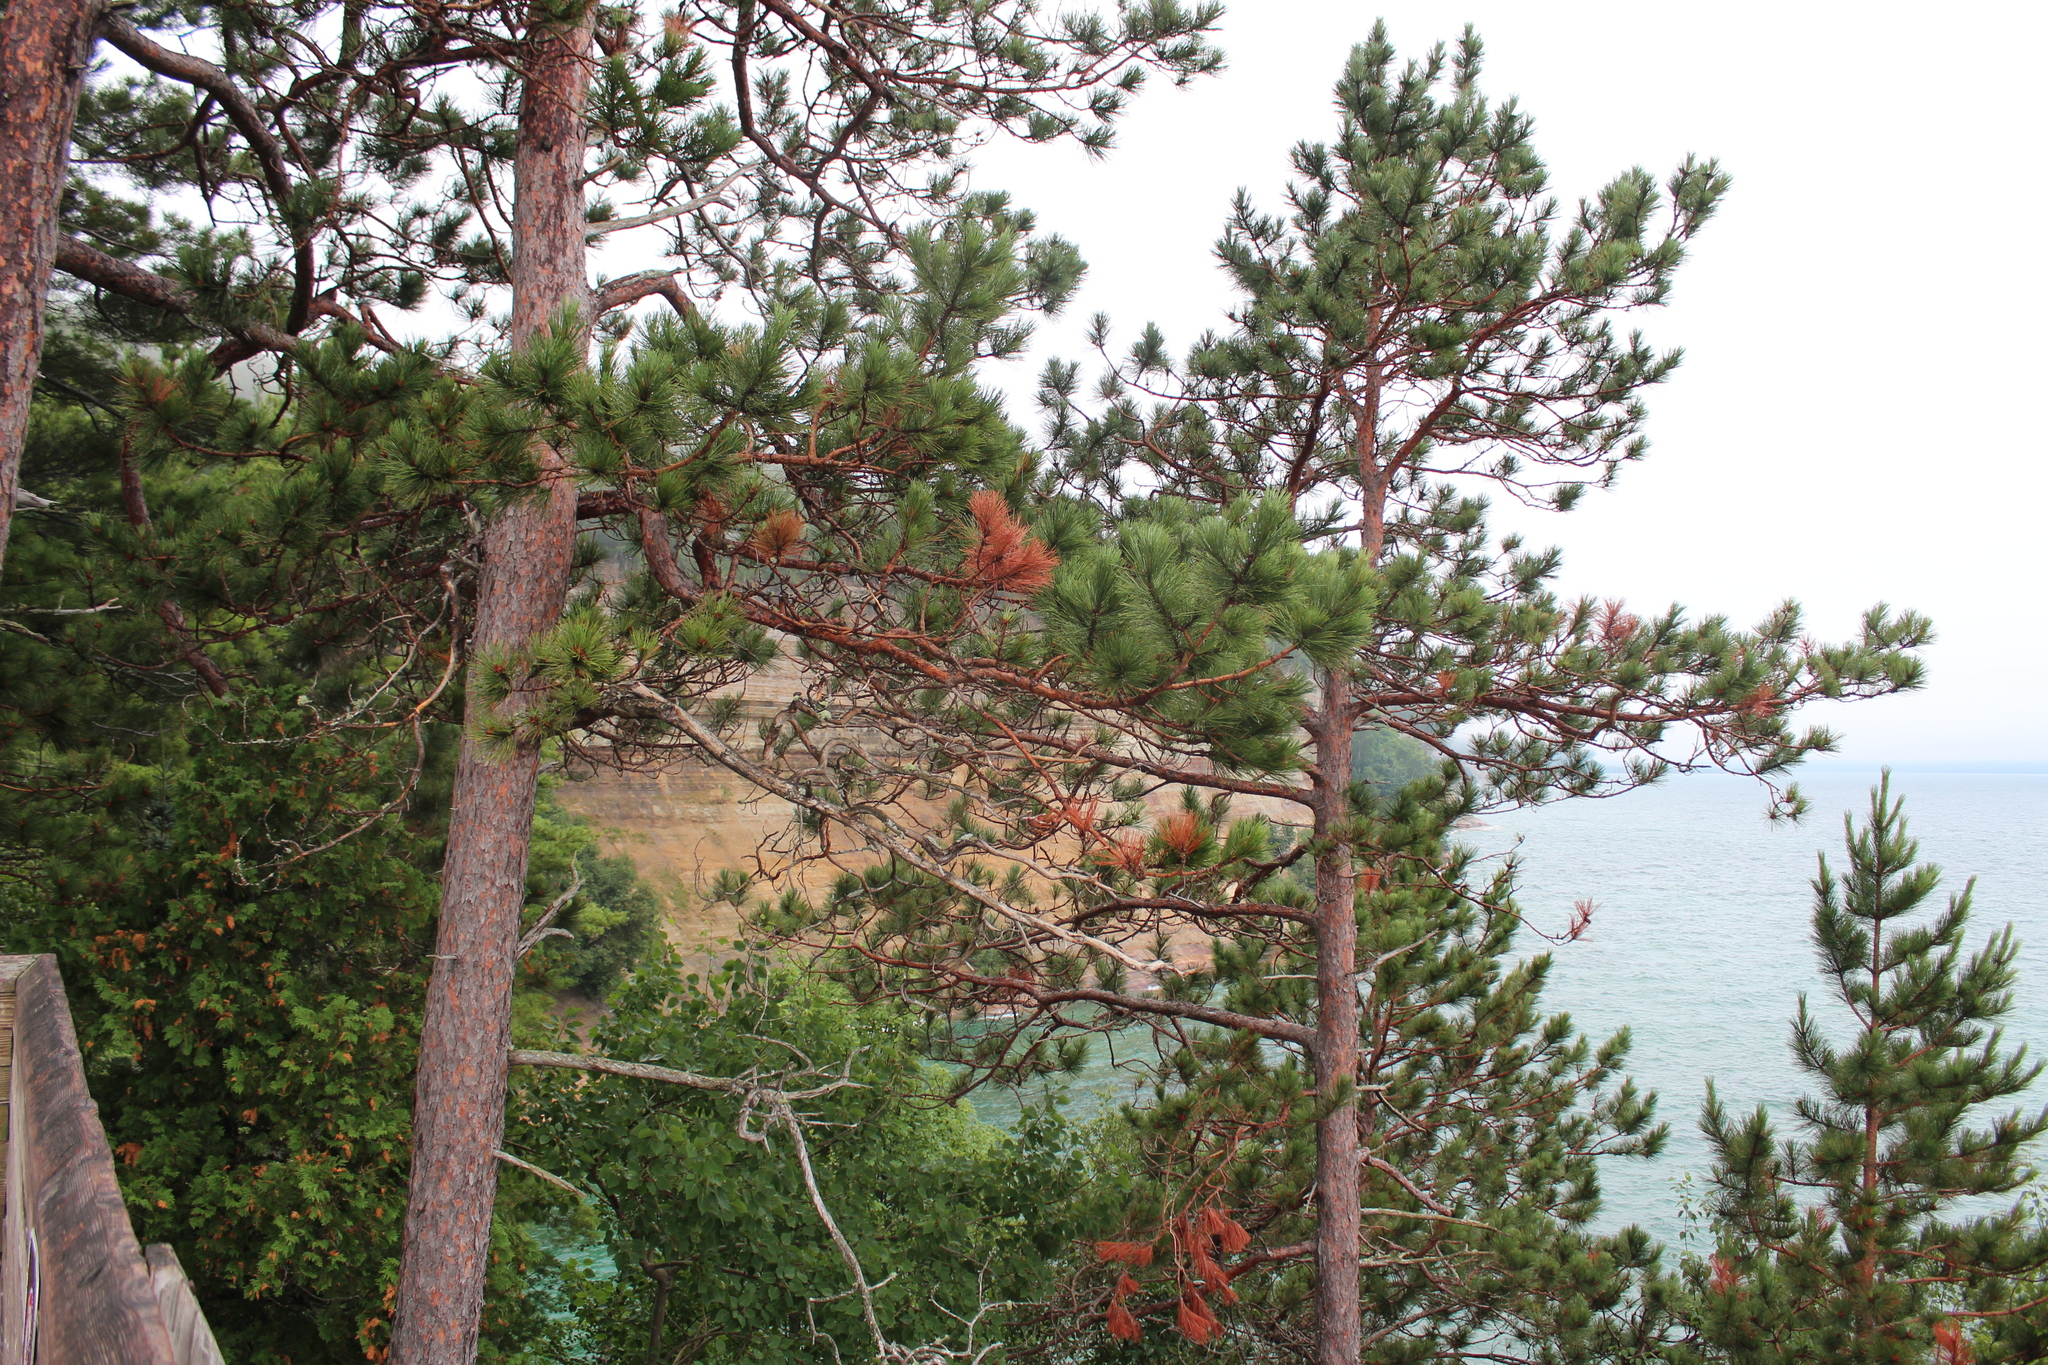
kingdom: Plantae
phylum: Tracheophyta
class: Pinopsida
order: Pinales
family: Pinaceae
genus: Pinus
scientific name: Pinus resinosa
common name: Norway pine
